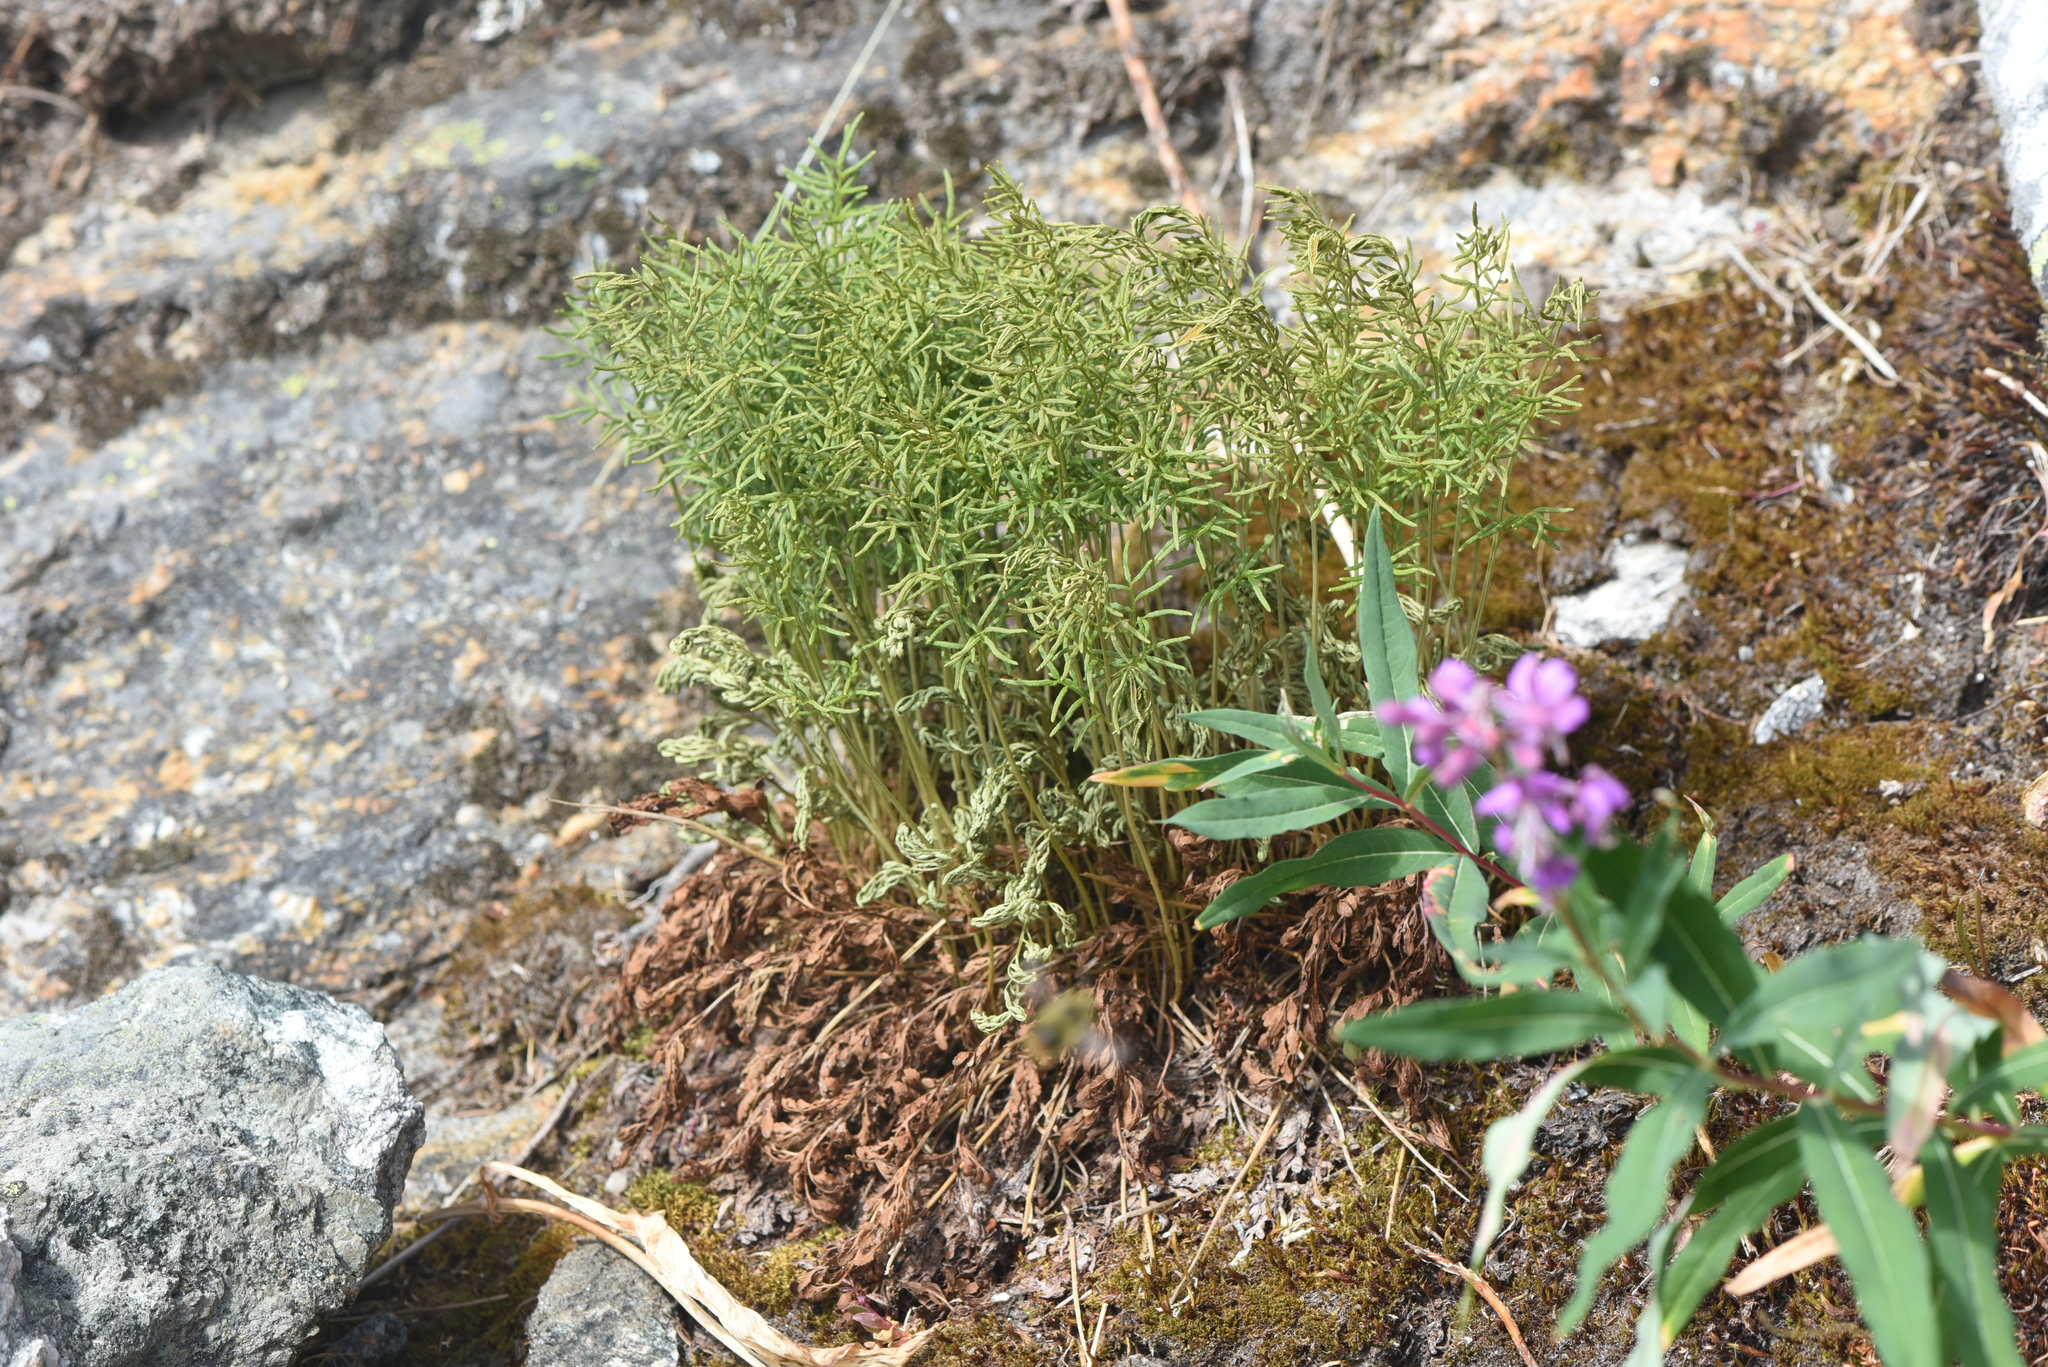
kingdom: Plantae
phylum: Tracheophyta
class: Polypodiopsida
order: Polypodiales
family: Pteridaceae
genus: Cryptogramma
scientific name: Cryptogramma acrostichoides
